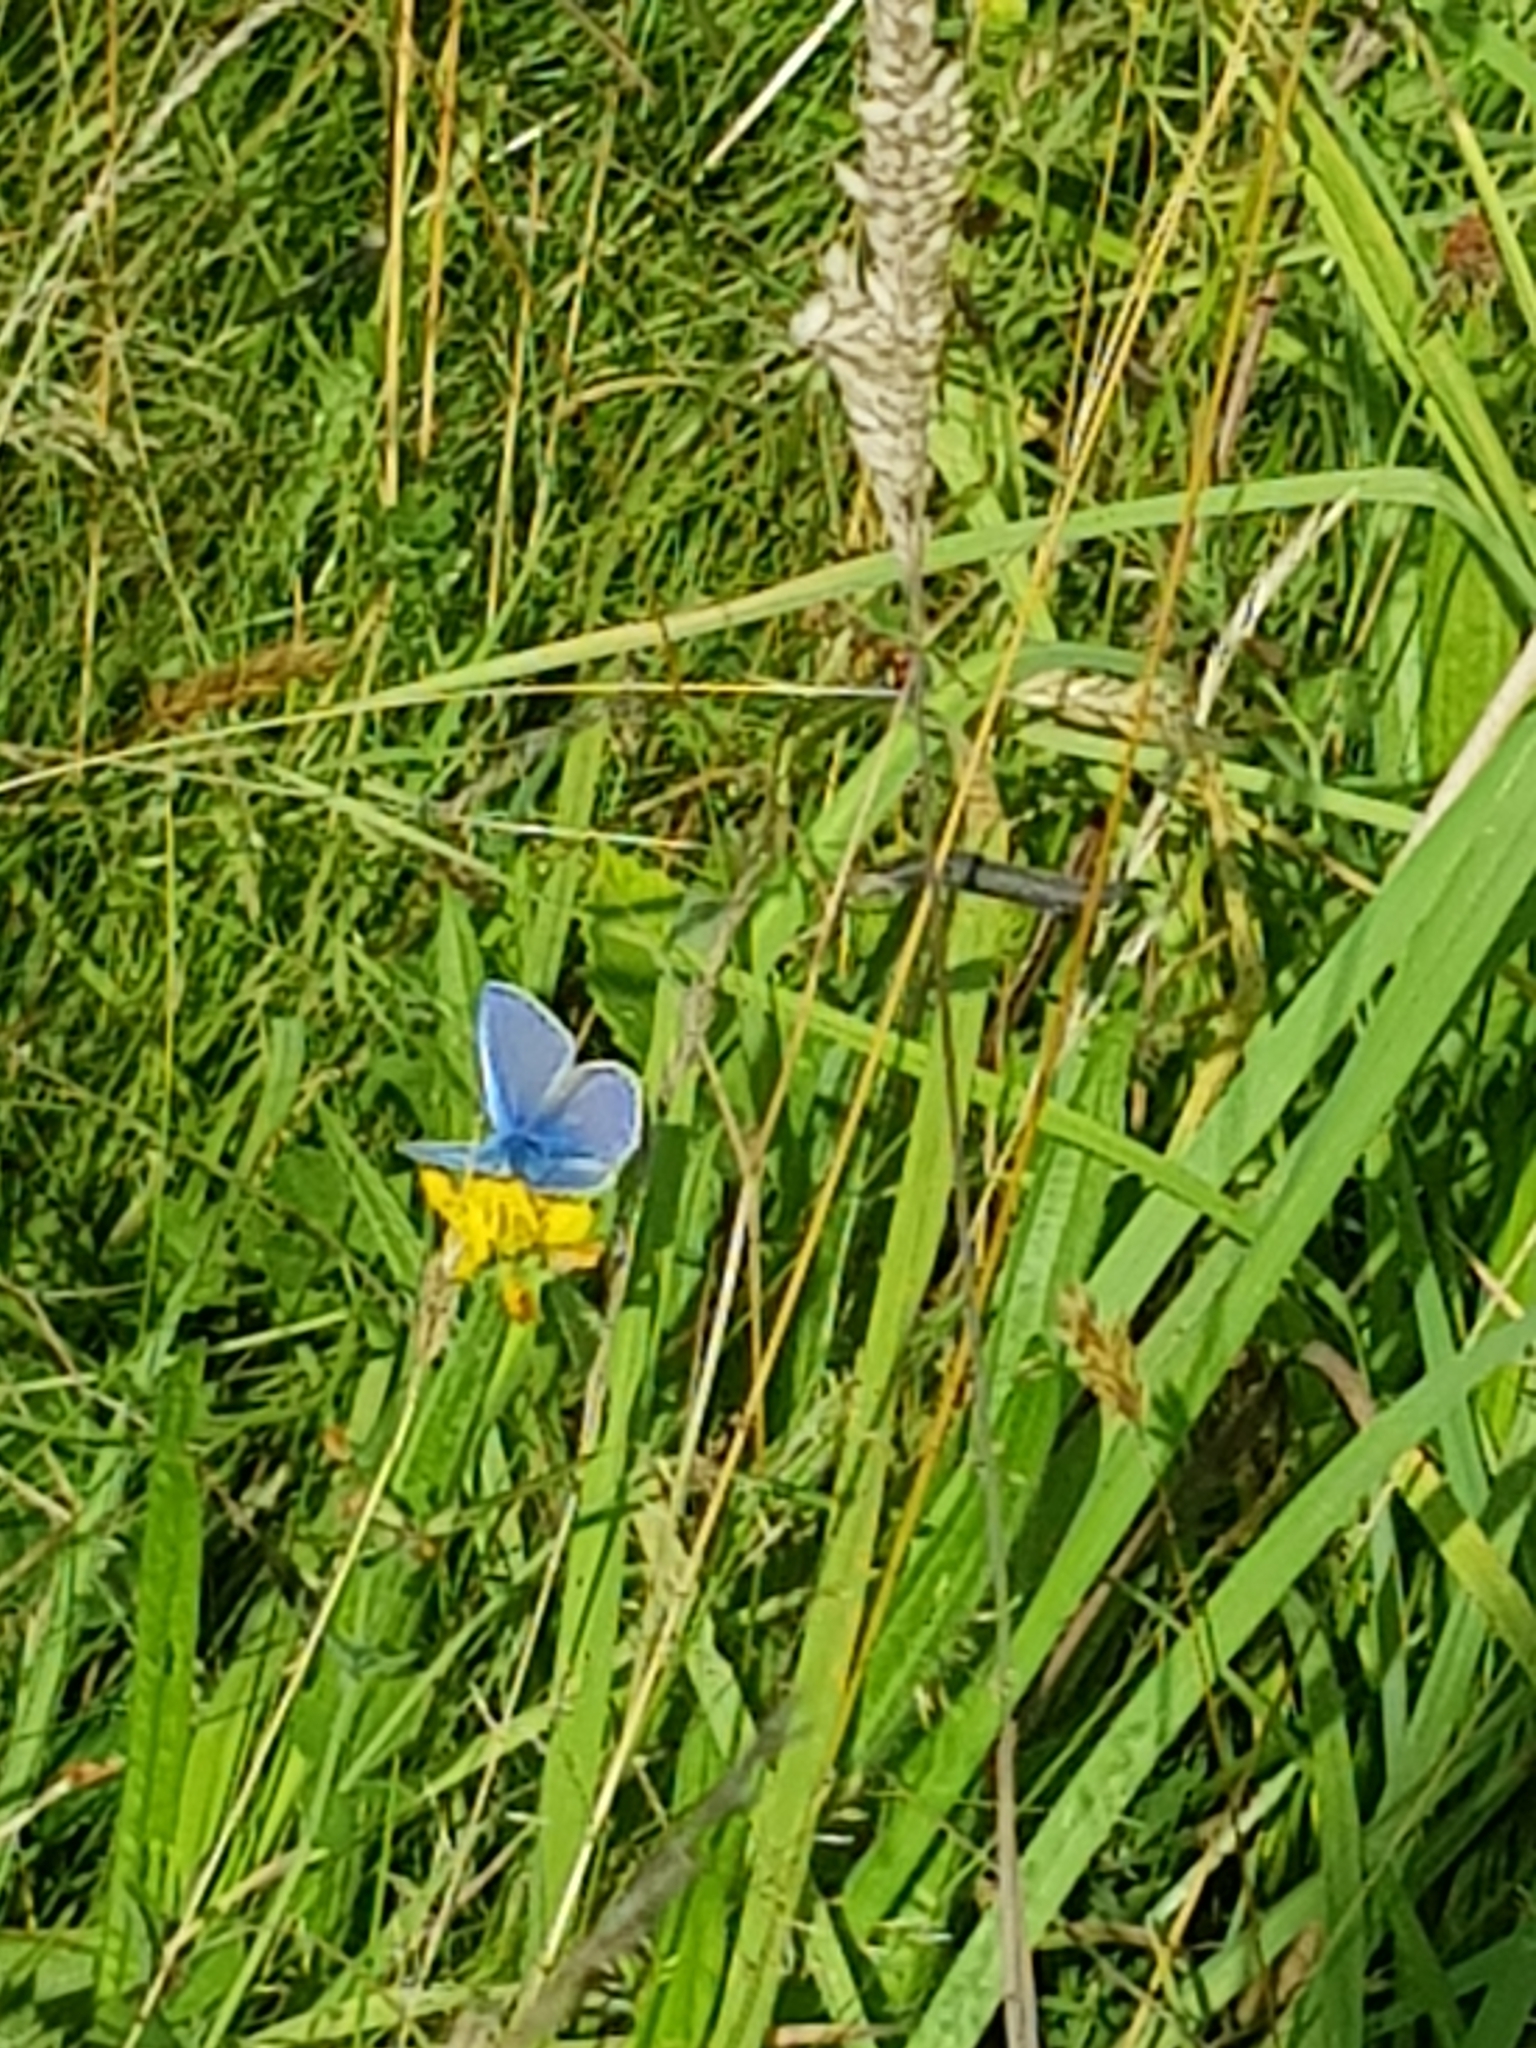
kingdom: Animalia
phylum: Arthropoda
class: Insecta
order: Lepidoptera
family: Lycaenidae
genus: Polyommatus
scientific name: Polyommatus icarus
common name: Common blue
